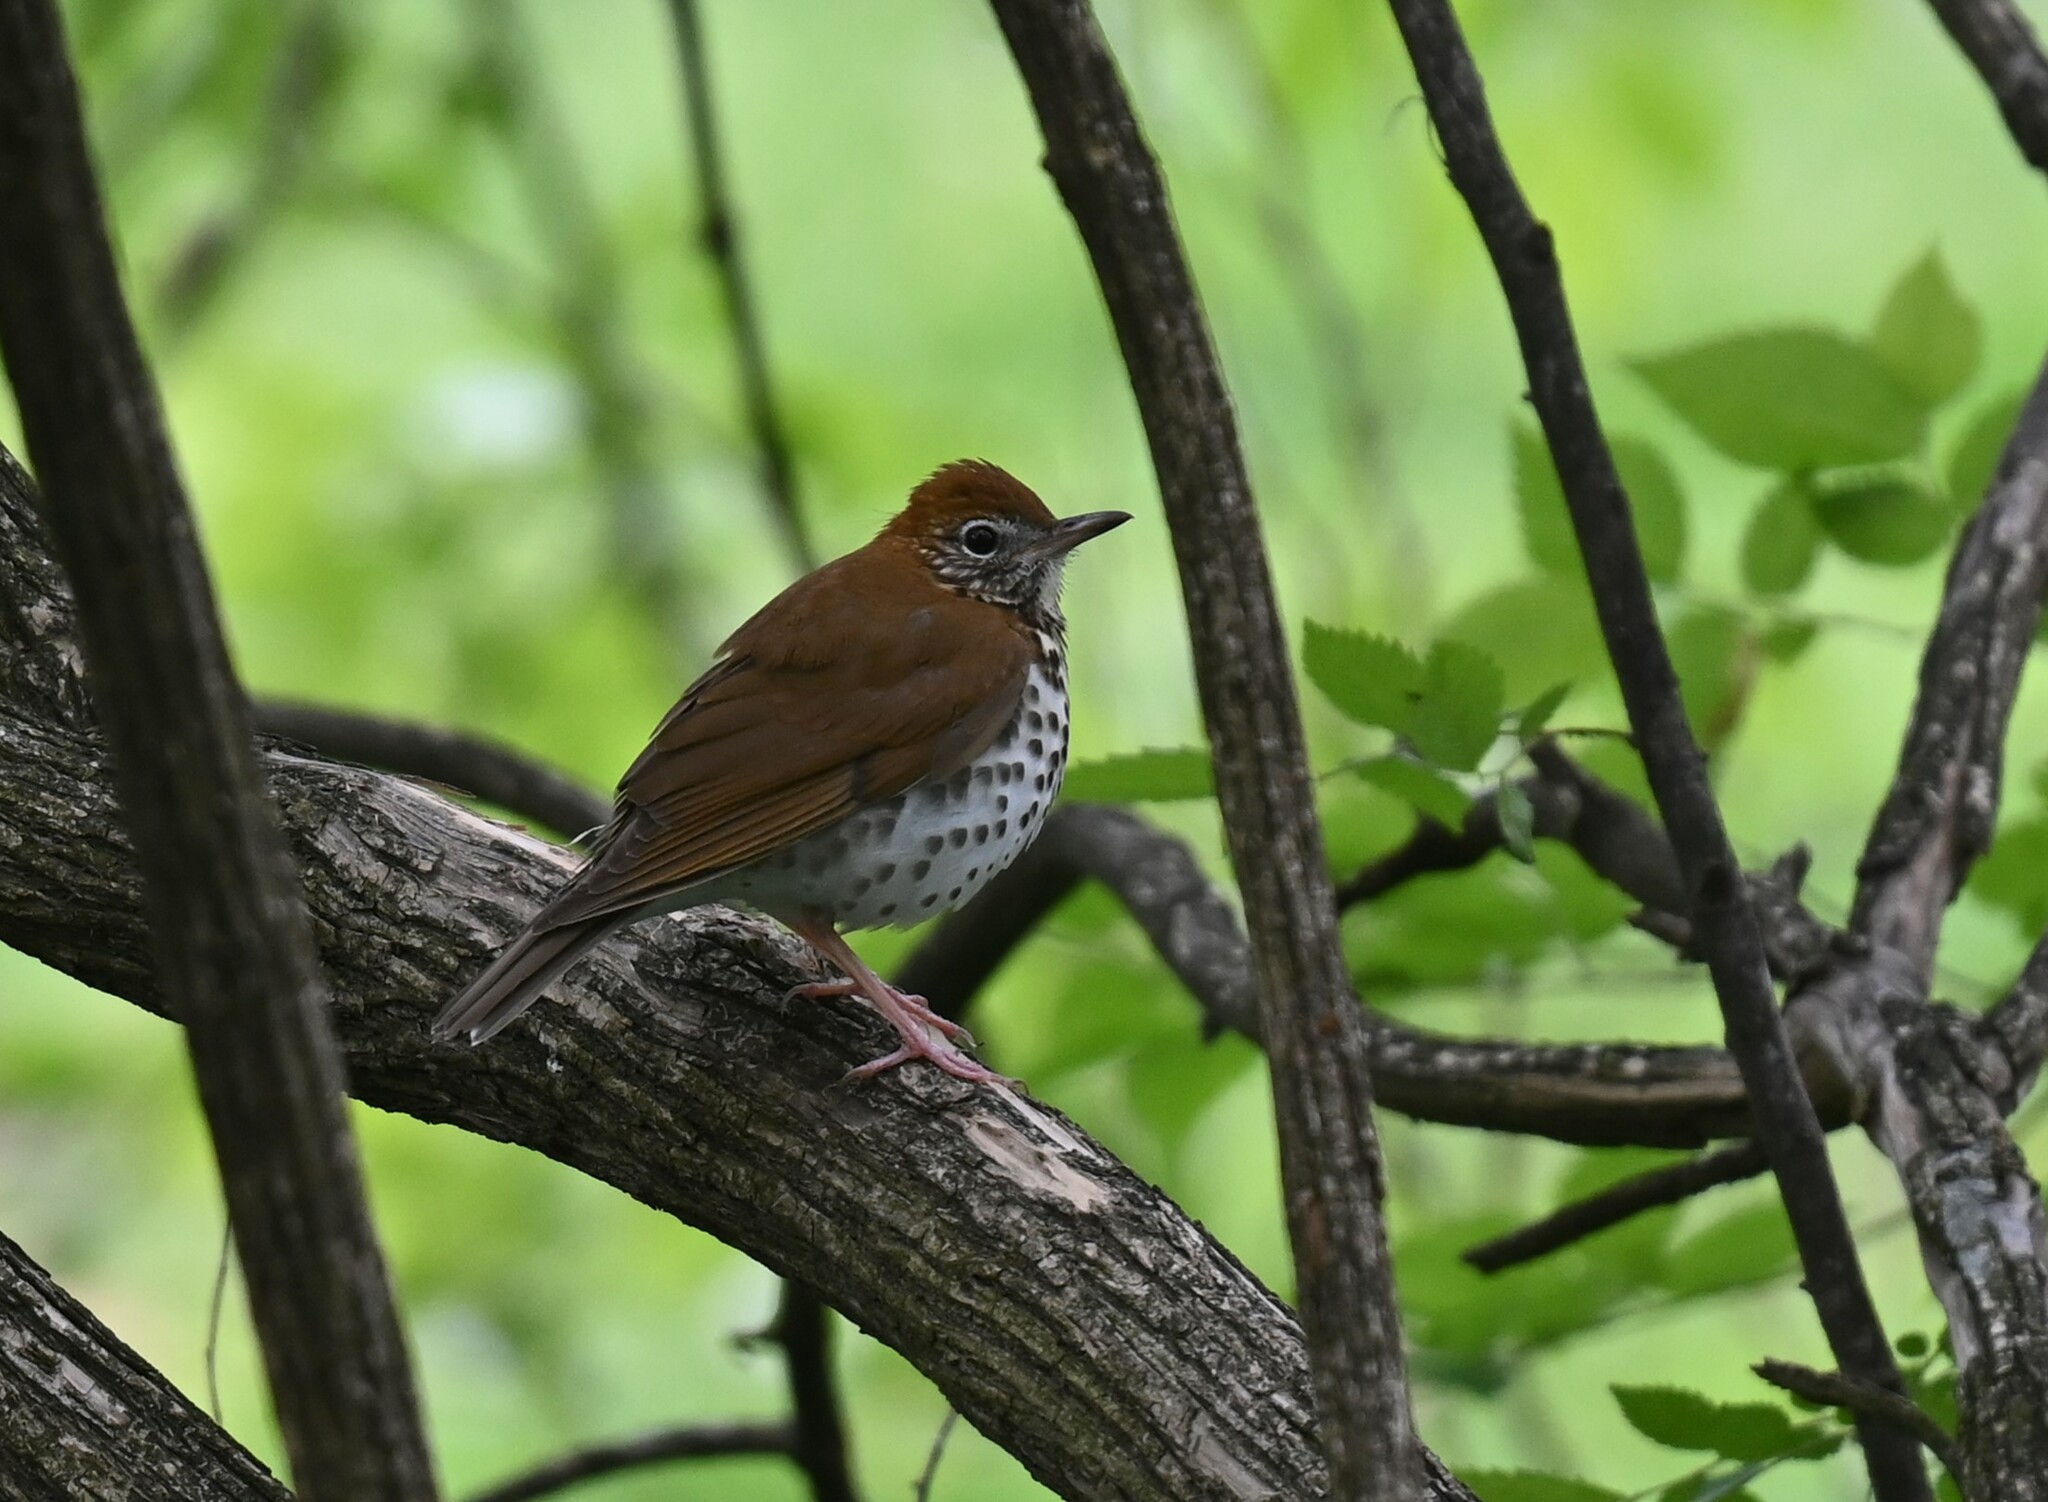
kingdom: Animalia
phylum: Chordata
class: Aves
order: Passeriformes
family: Turdidae
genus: Hylocichla
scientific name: Hylocichla mustelina
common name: Wood thrush
